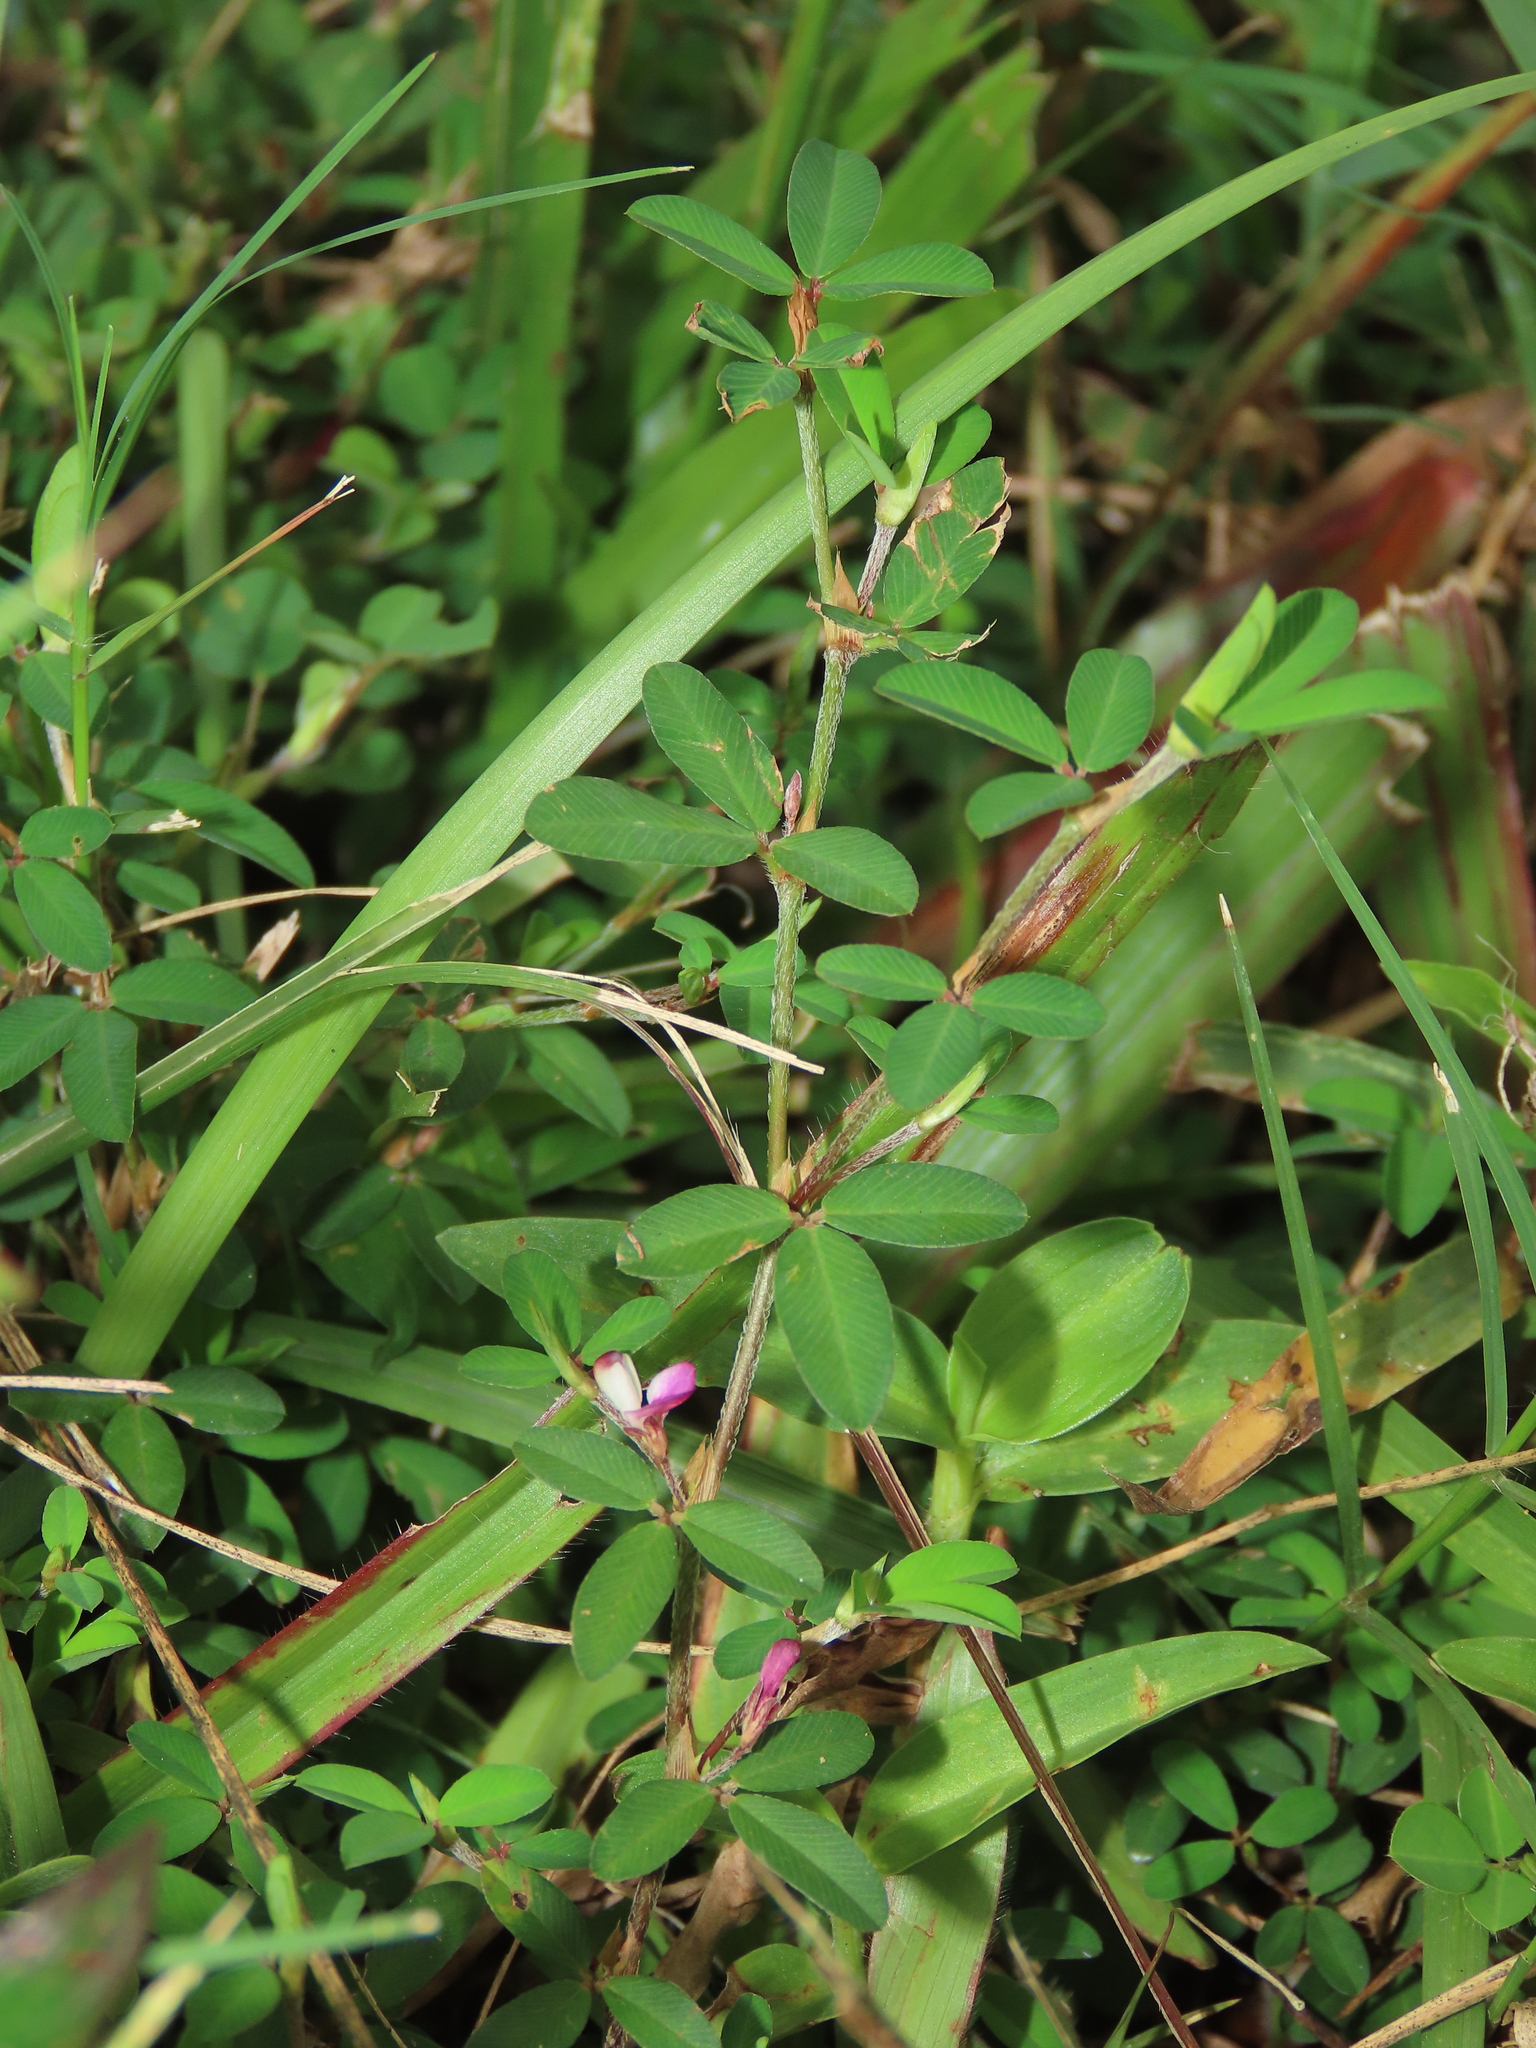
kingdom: Plantae
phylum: Tracheophyta
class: Magnoliopsida
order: Fabales
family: Fabaceae
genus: Kummerowia
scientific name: Kummerowia striata
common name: Japanese clover
